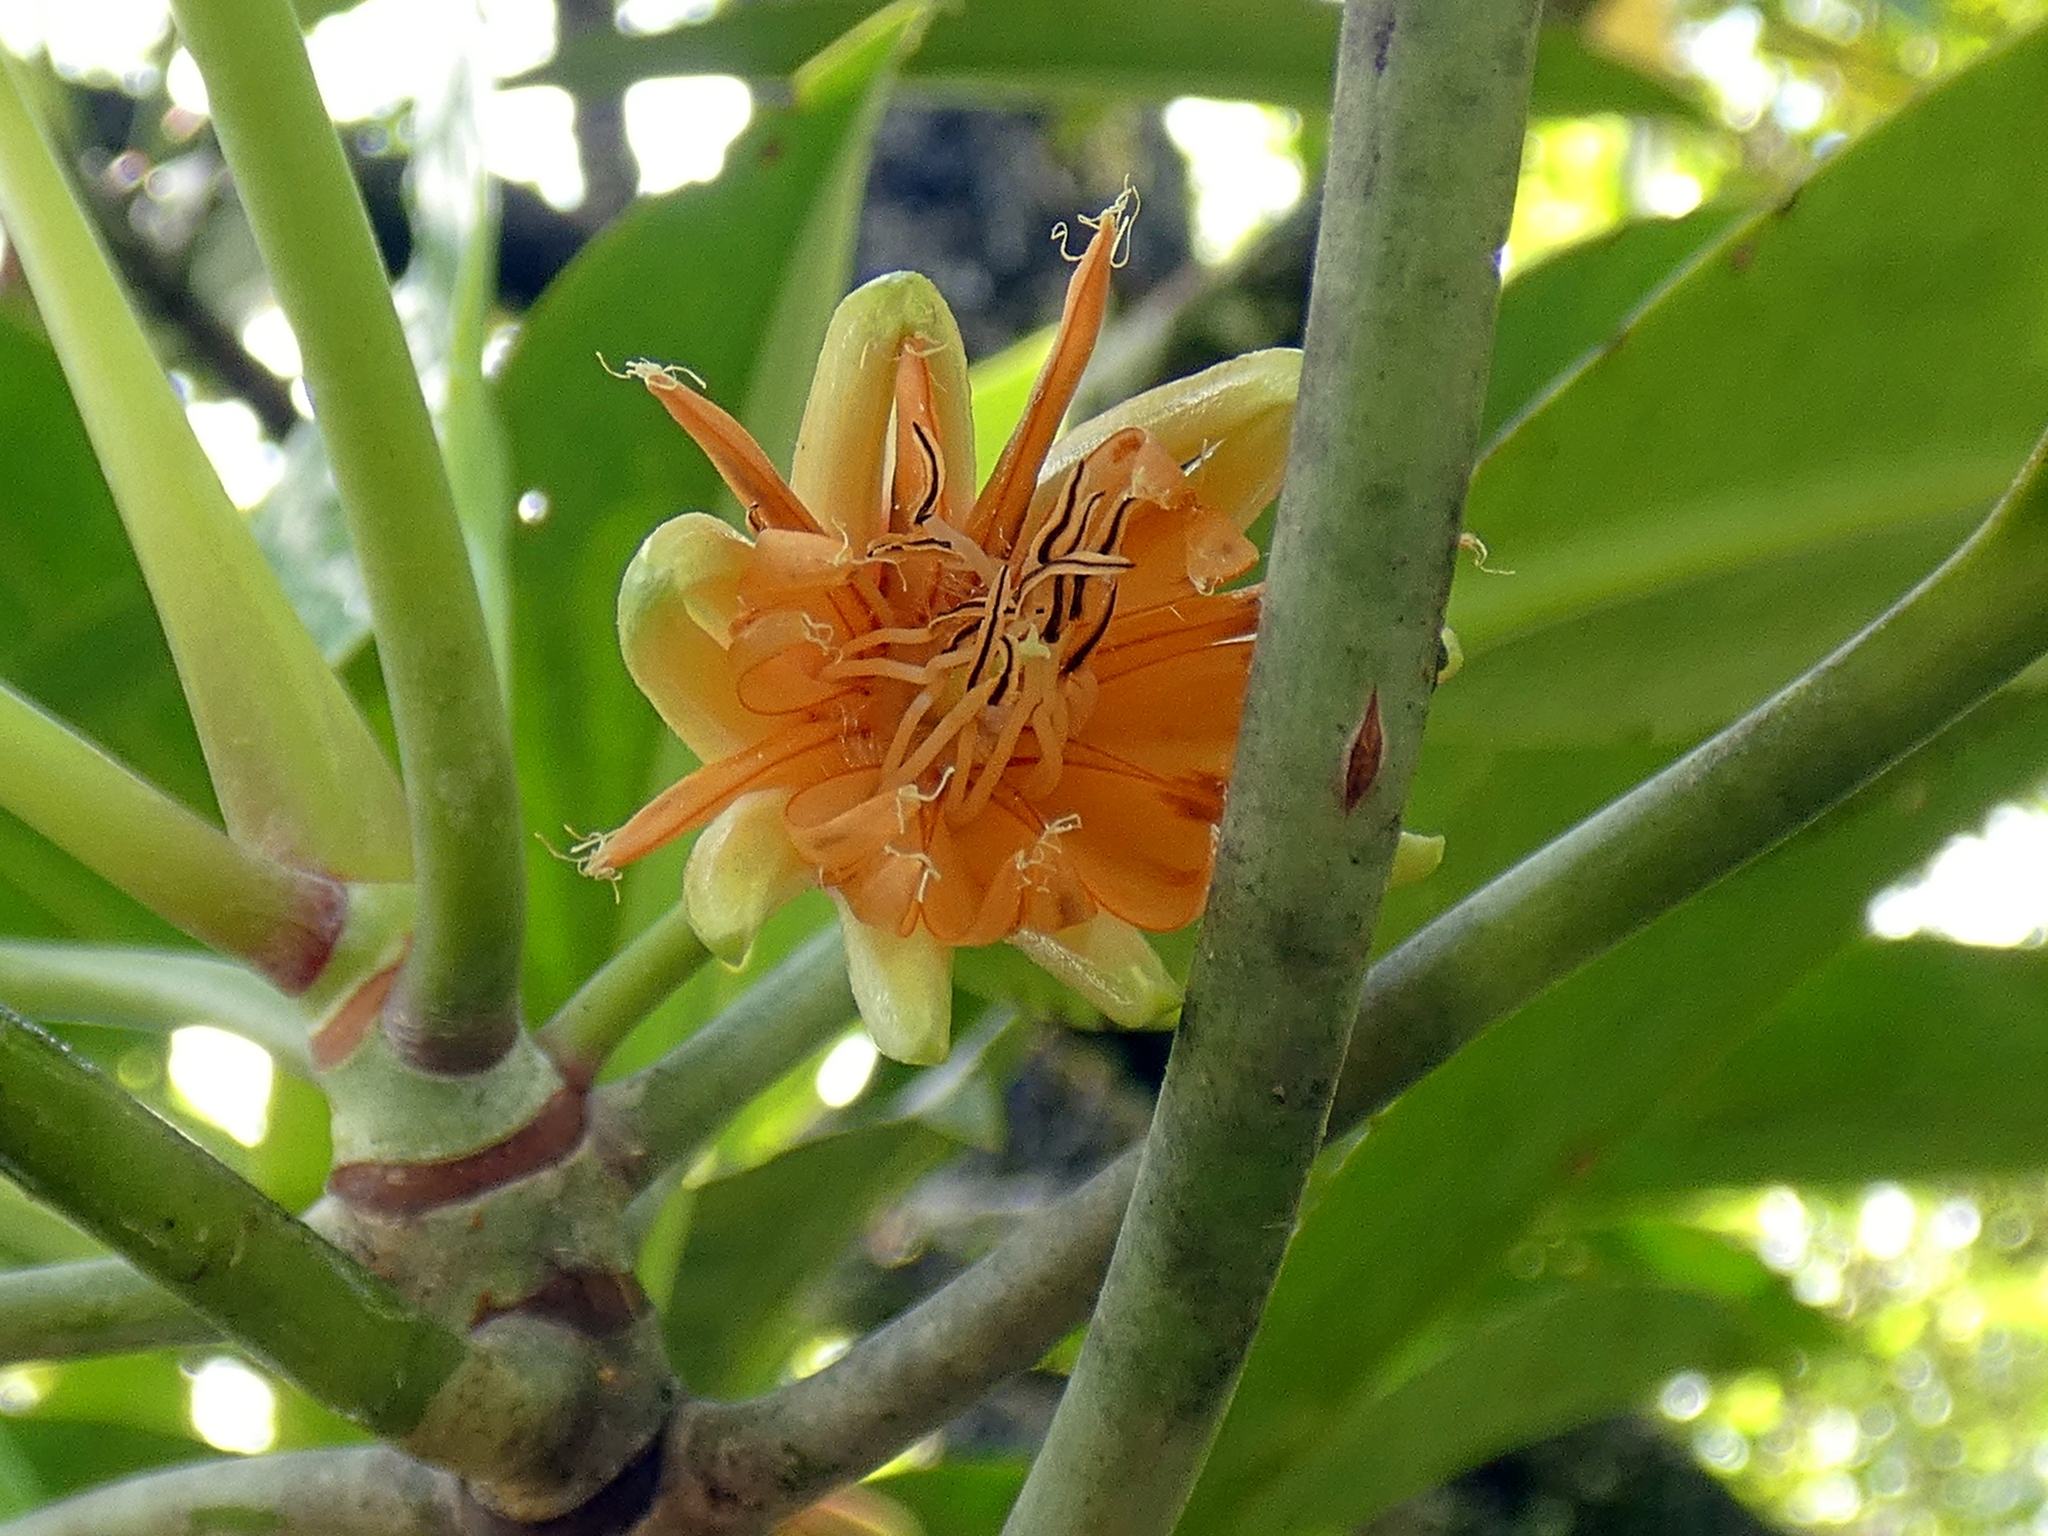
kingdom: Plantae
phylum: Tracheophyta
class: Magnoliopsida
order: Malpighiales
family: Rhizophoraceae
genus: Bruguiera
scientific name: Bruguiera gymnorhiza
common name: Oriental mangrove
